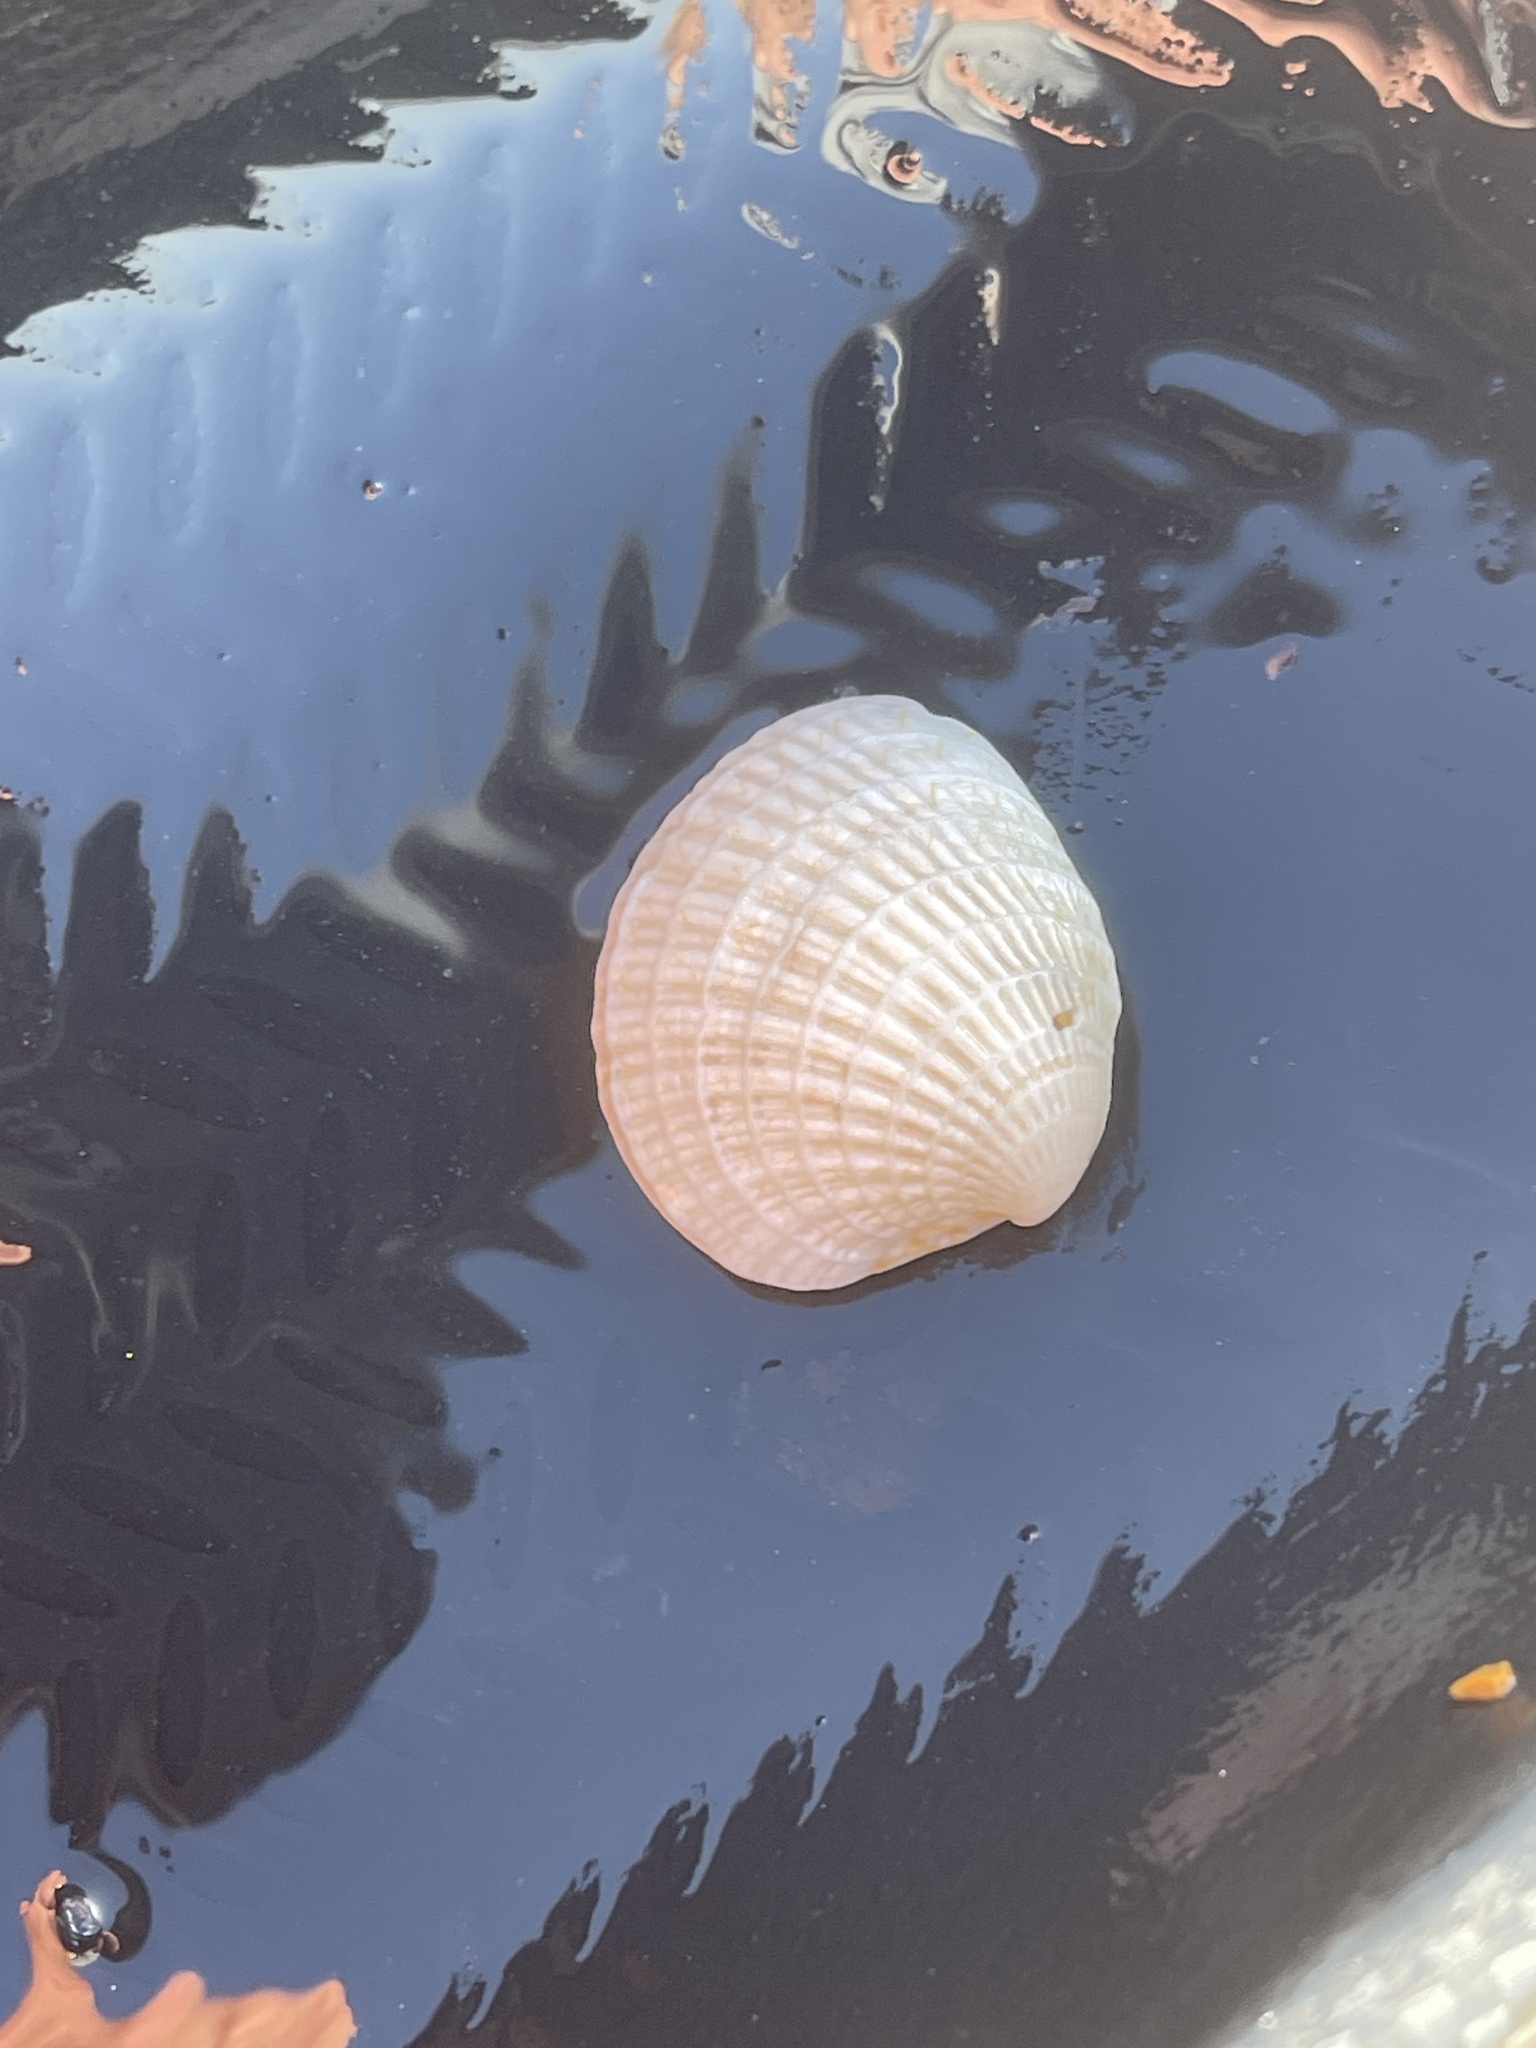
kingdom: Animalia
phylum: Mollusca
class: Bivalvia
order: Venerida
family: Veneridae
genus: Chione
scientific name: Chione elevata
